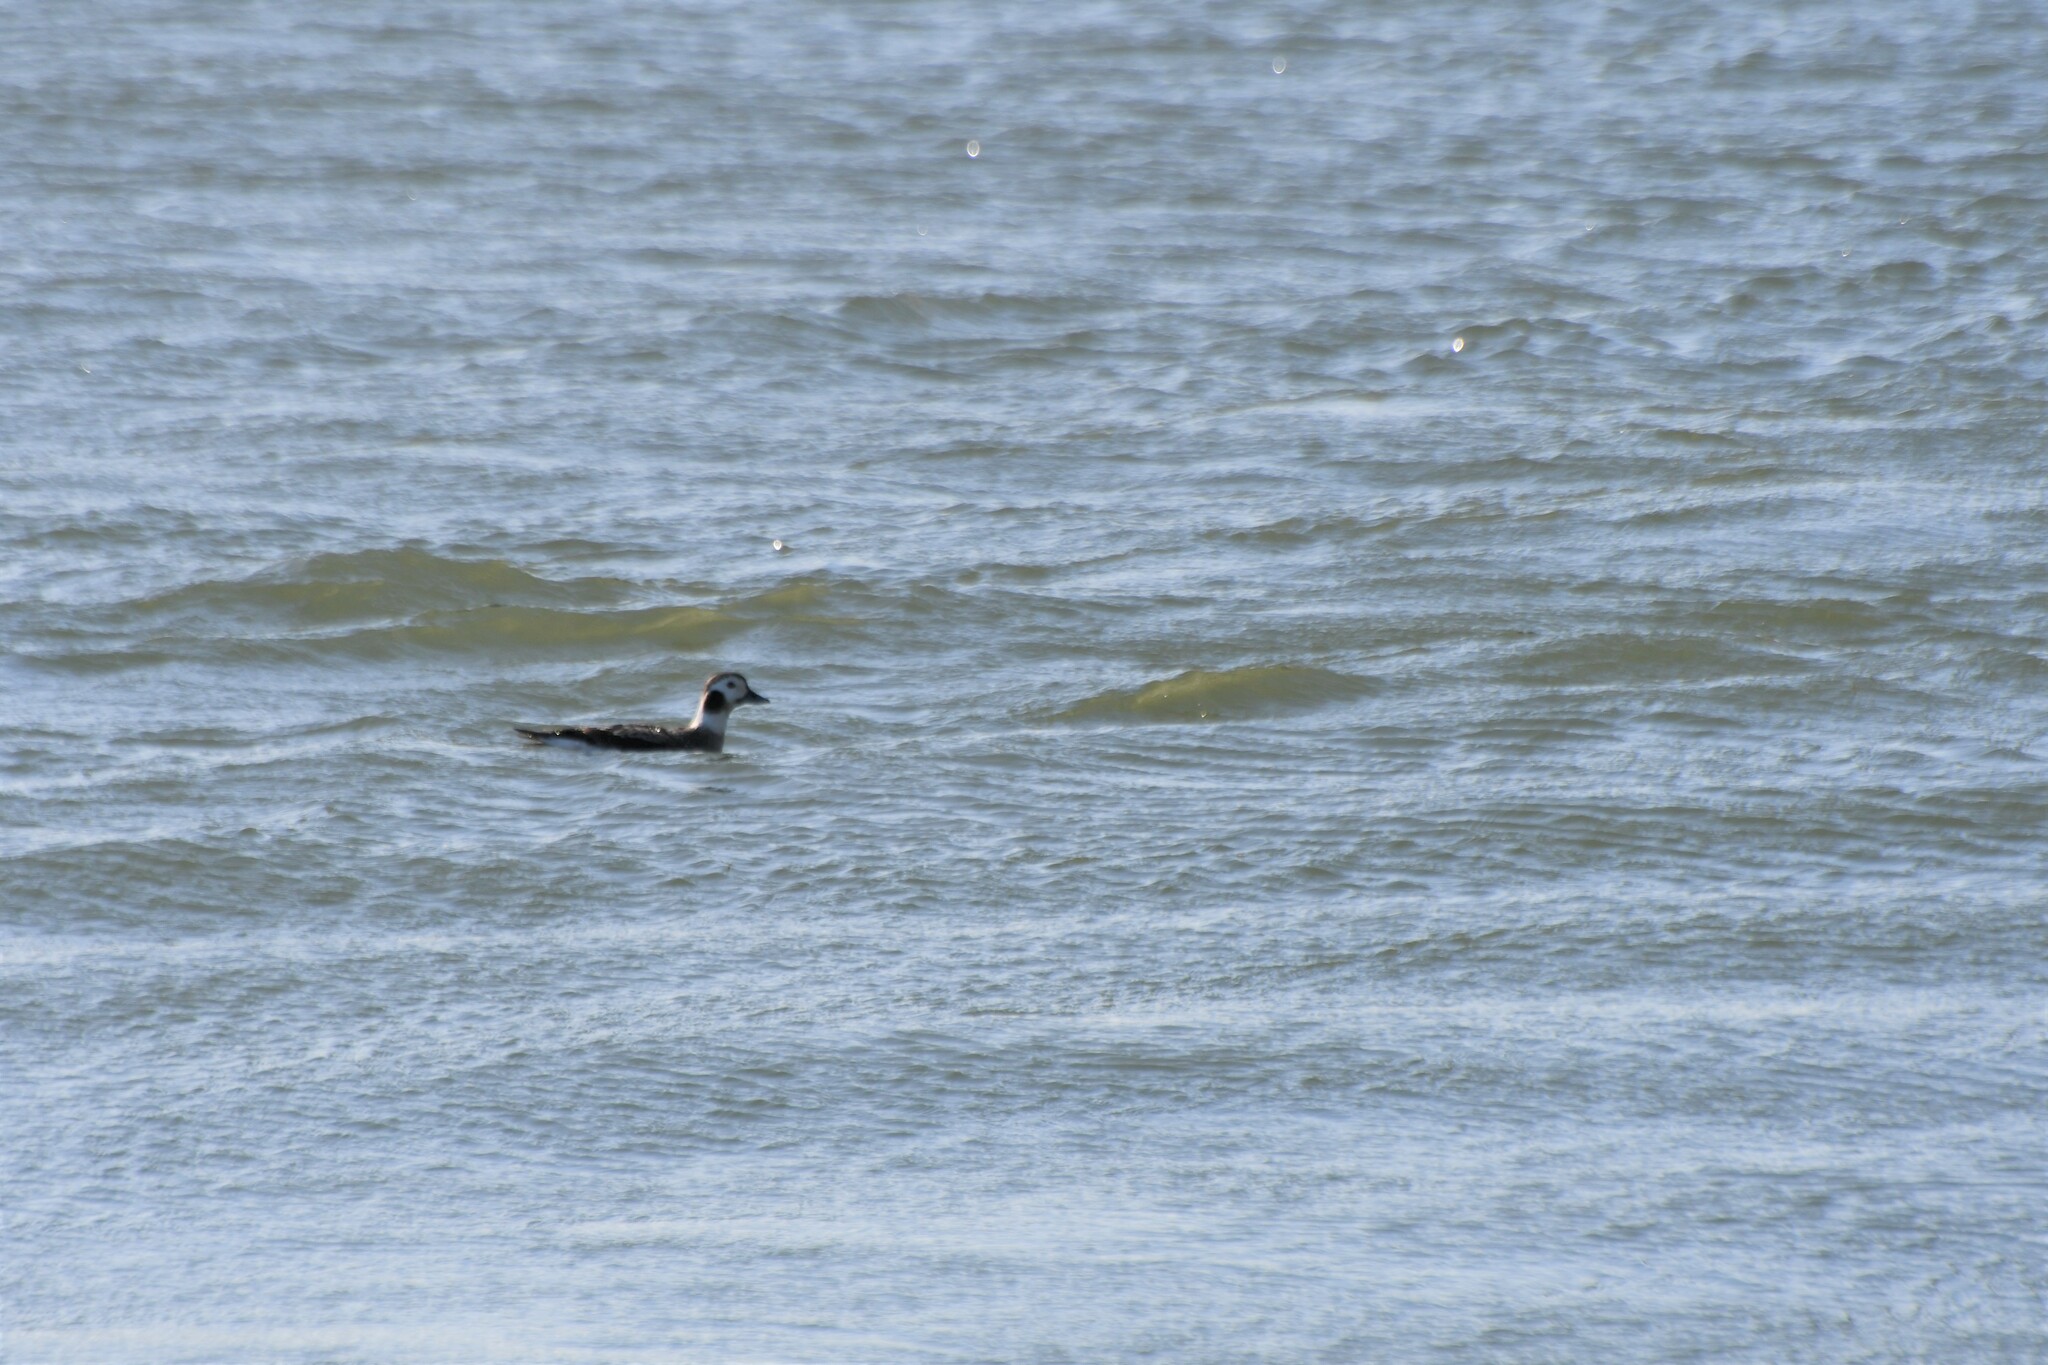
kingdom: Animalia
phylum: Chordata
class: Aves
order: Anseriformes
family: Anatidae
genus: Clangula
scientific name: Clangula hyemalis
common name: Long-tailed duck
